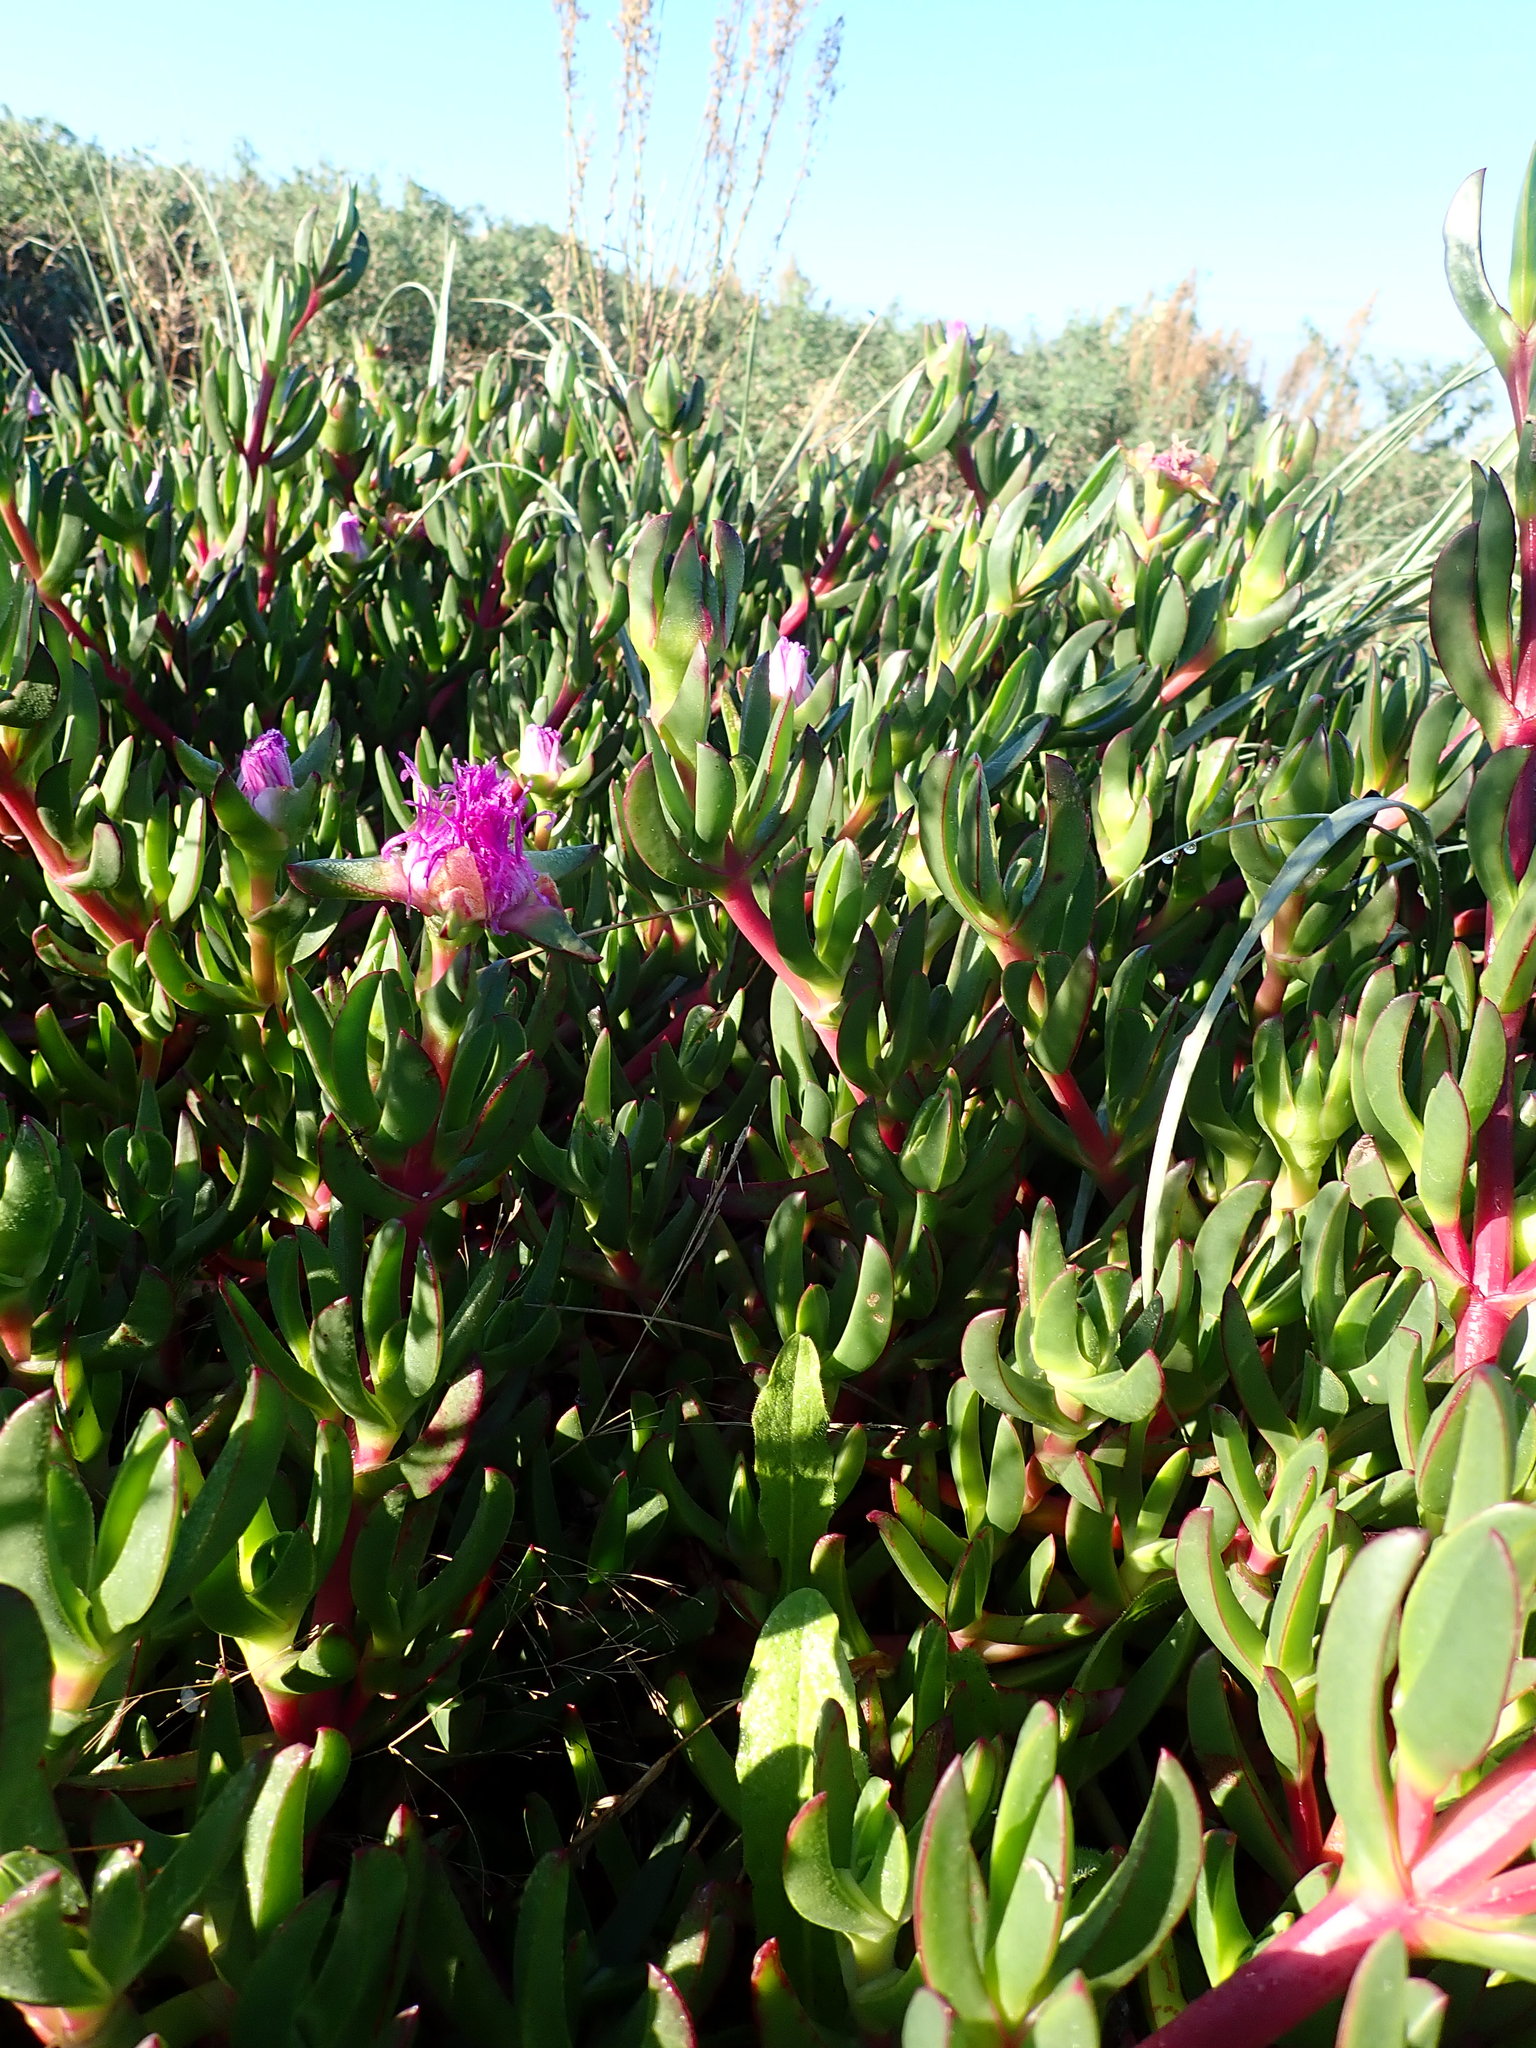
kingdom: Plantae
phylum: Tracheophyta
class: Magnoliopsida
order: Caryophyllales
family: Aizoaceae
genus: Carpobrotus
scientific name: Carpobrotus chilensis
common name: Sea fig
